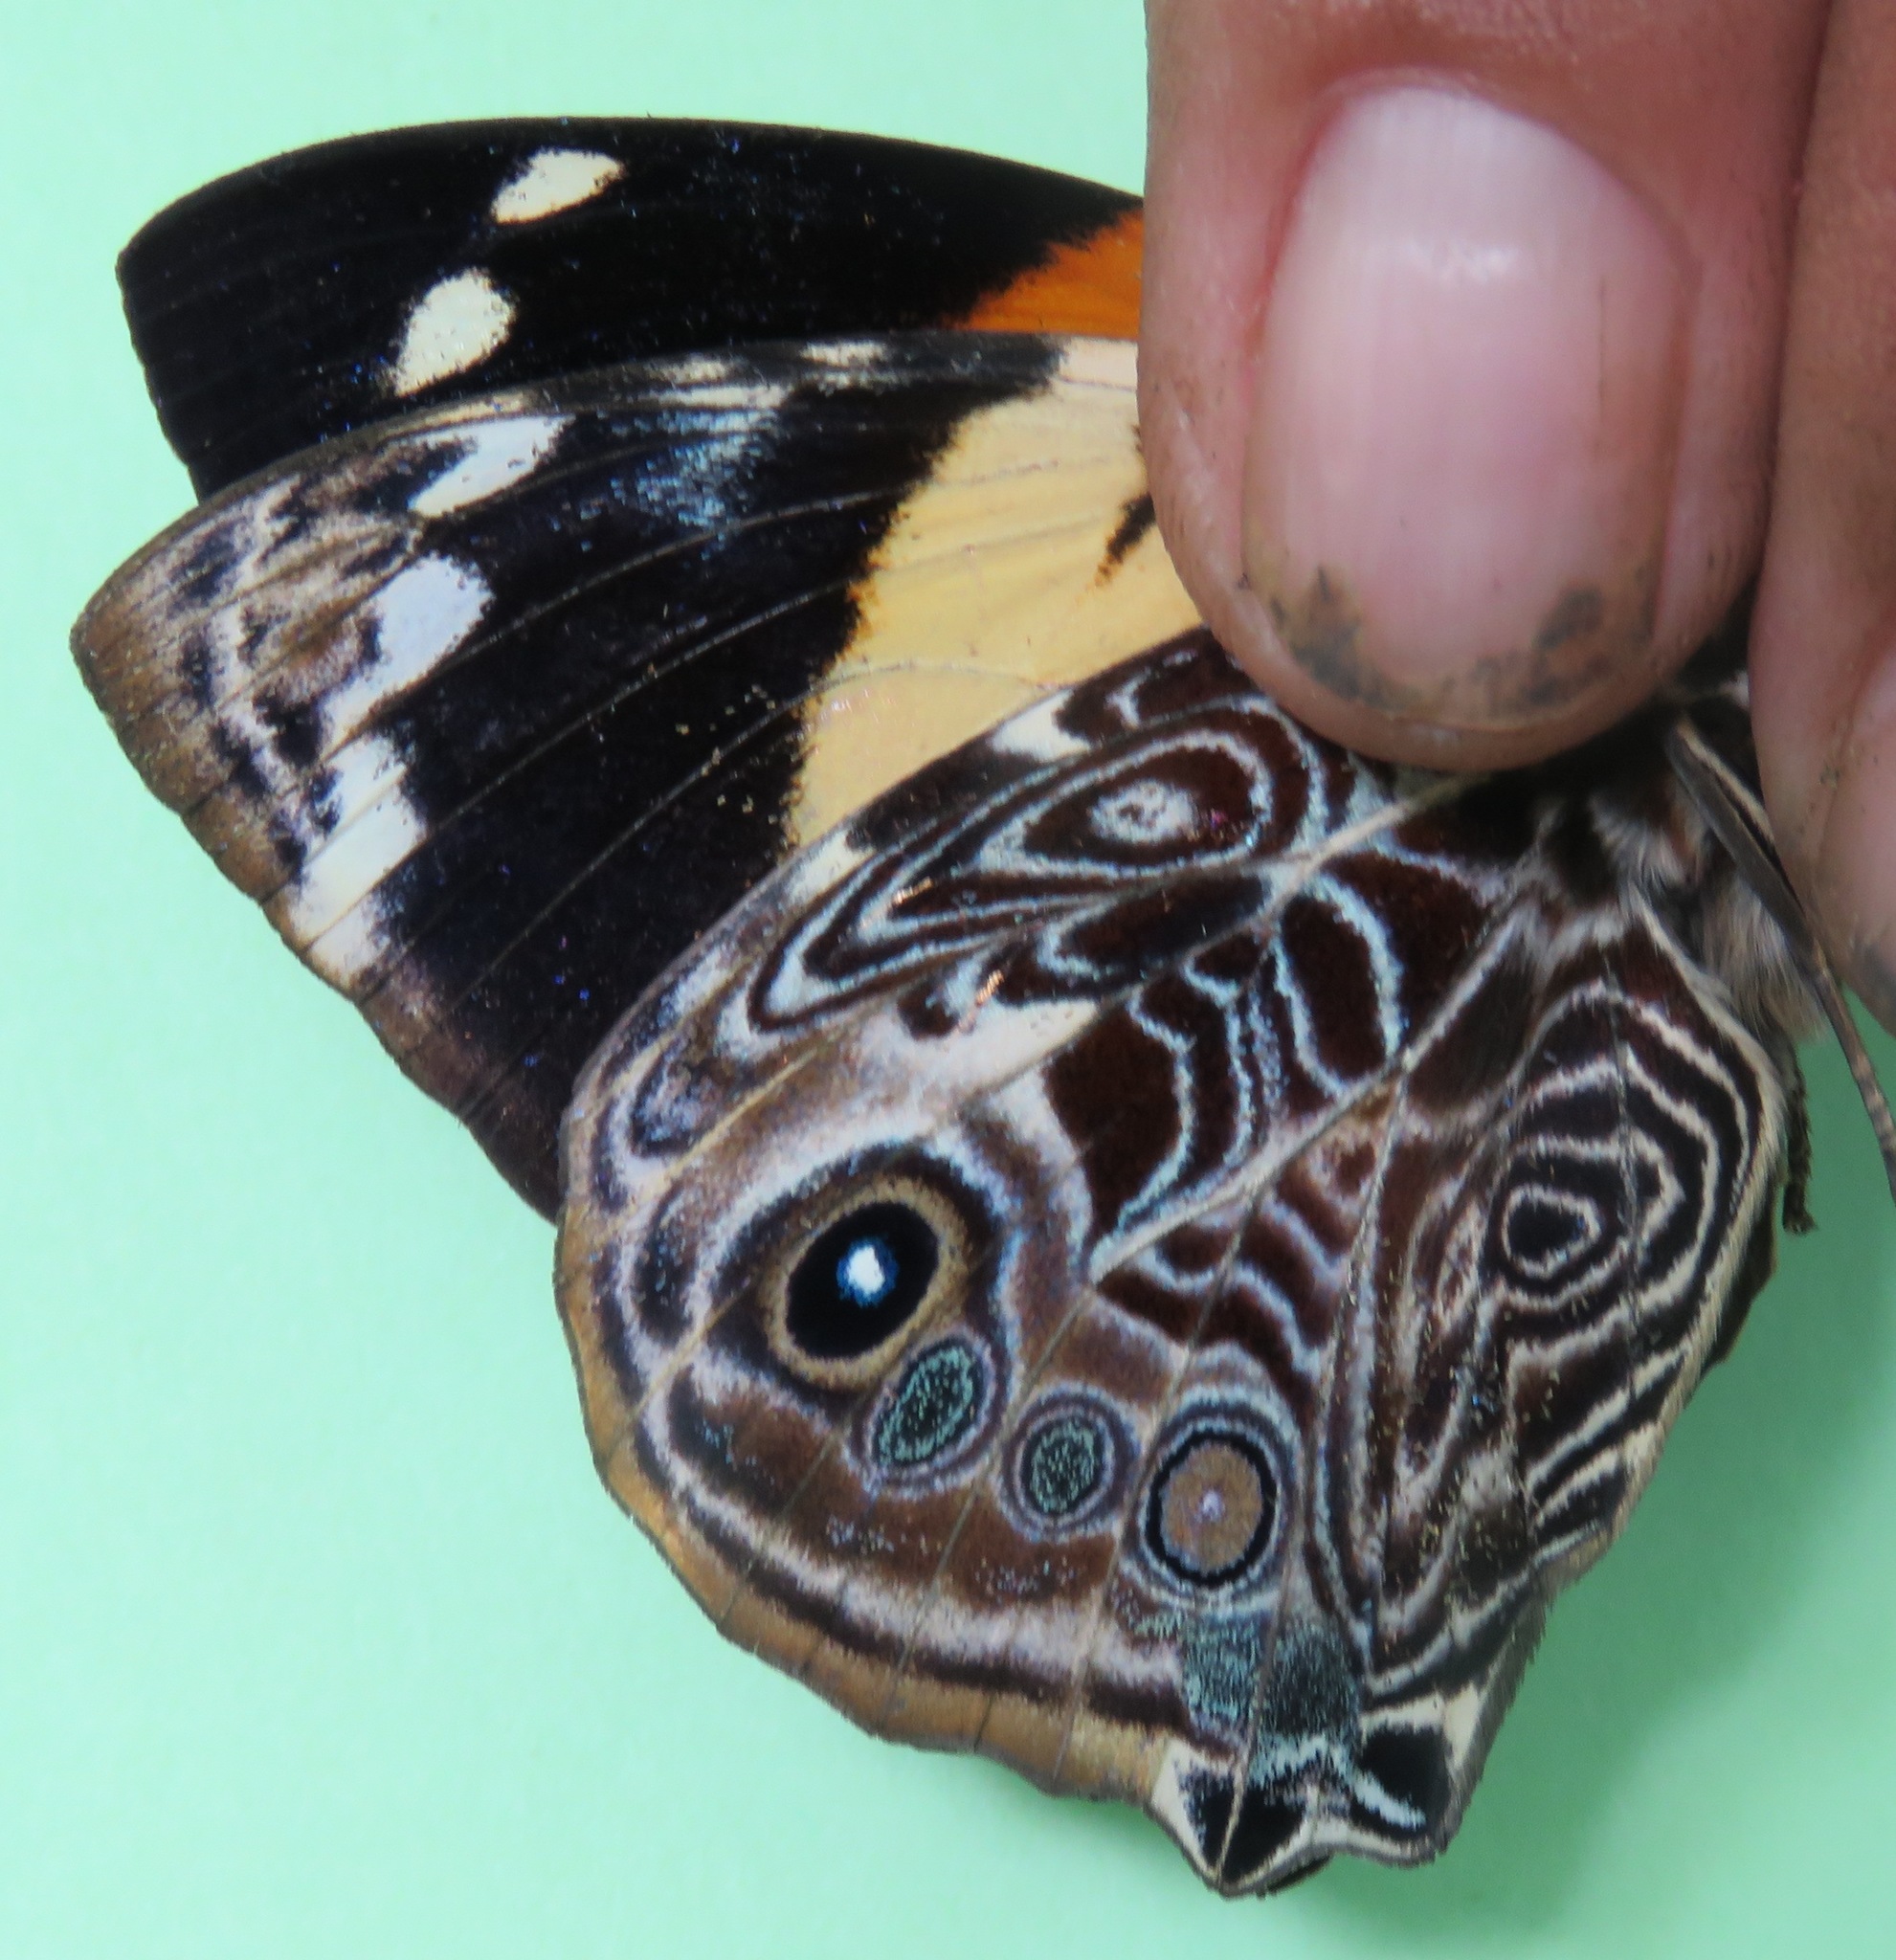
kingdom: Animalia
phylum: Arthropoda
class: Insecta
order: Lepidoptera
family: Nymphalidae
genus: Smyrna
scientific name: Smyrna blomfildia
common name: Blomfild's beauty
